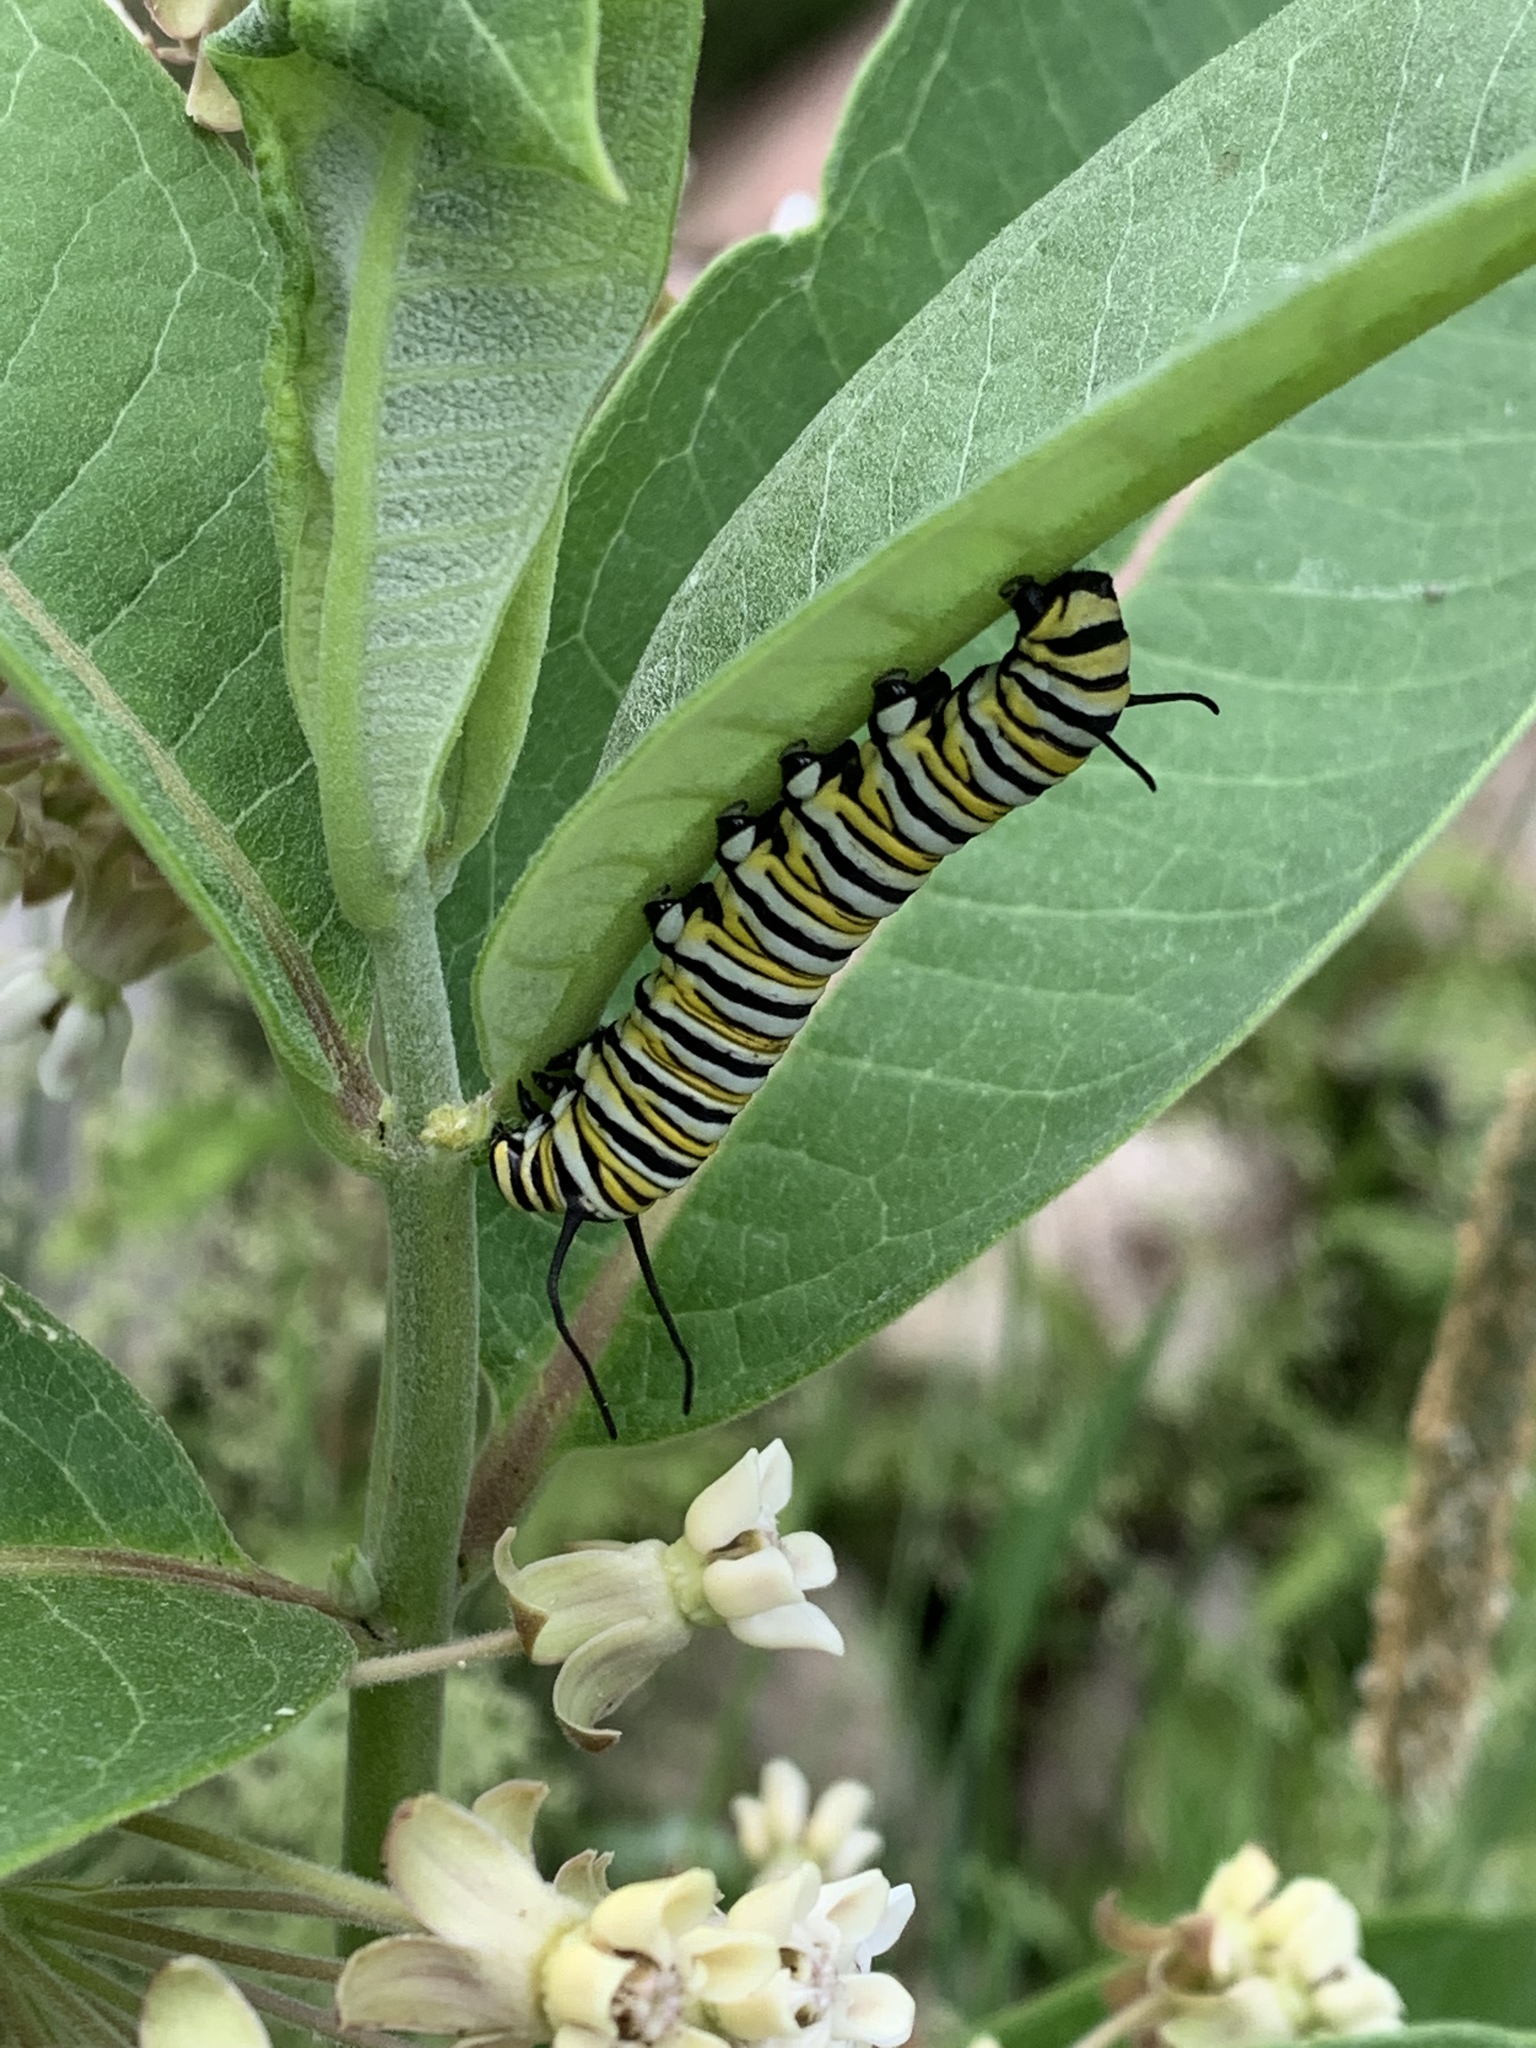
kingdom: Animalia
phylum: Arthropoda
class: Insecta
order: Lepidoptera
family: Nymphalidae
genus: Danaus
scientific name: Danaus plexippus
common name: Monarch
